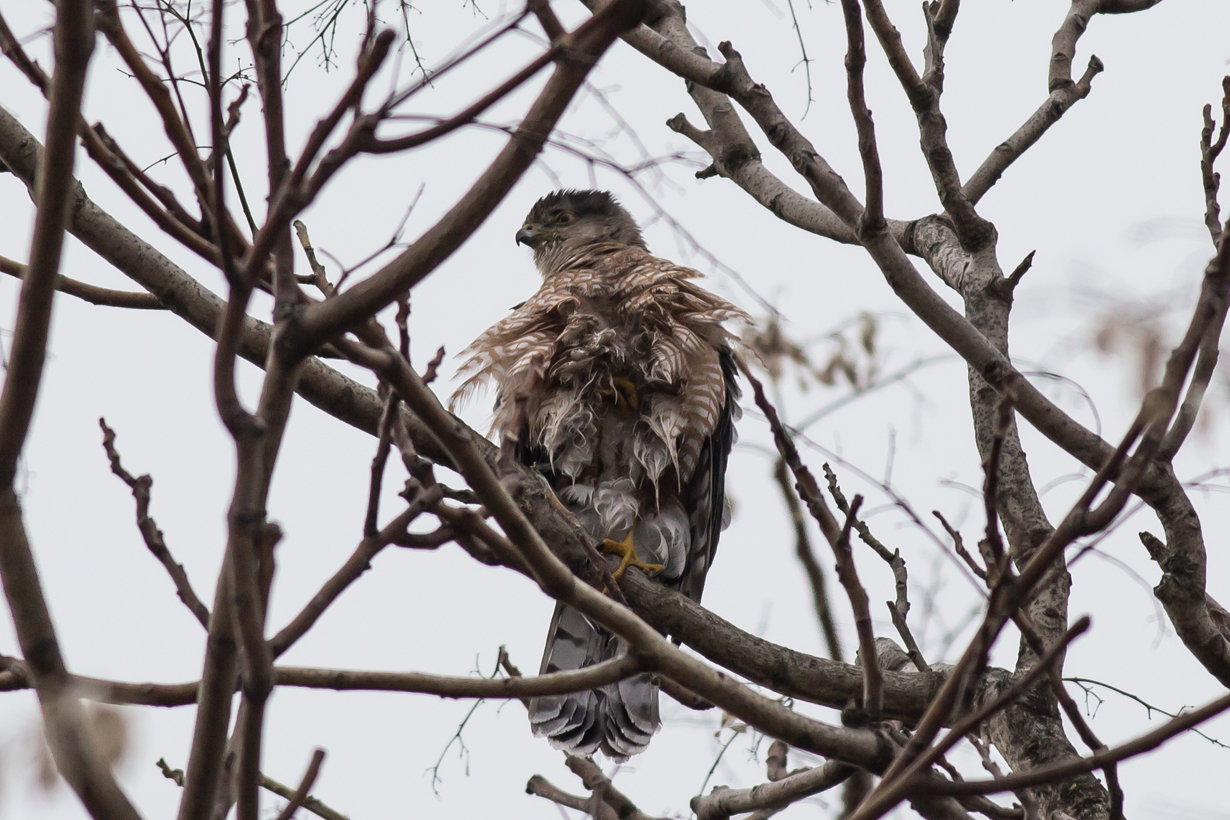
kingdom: Animalia
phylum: Chordata
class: Aves
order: Accipitriformes
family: Accipitridae
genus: Accipiter
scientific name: Accipiter cooperii
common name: Cooper's hawk
